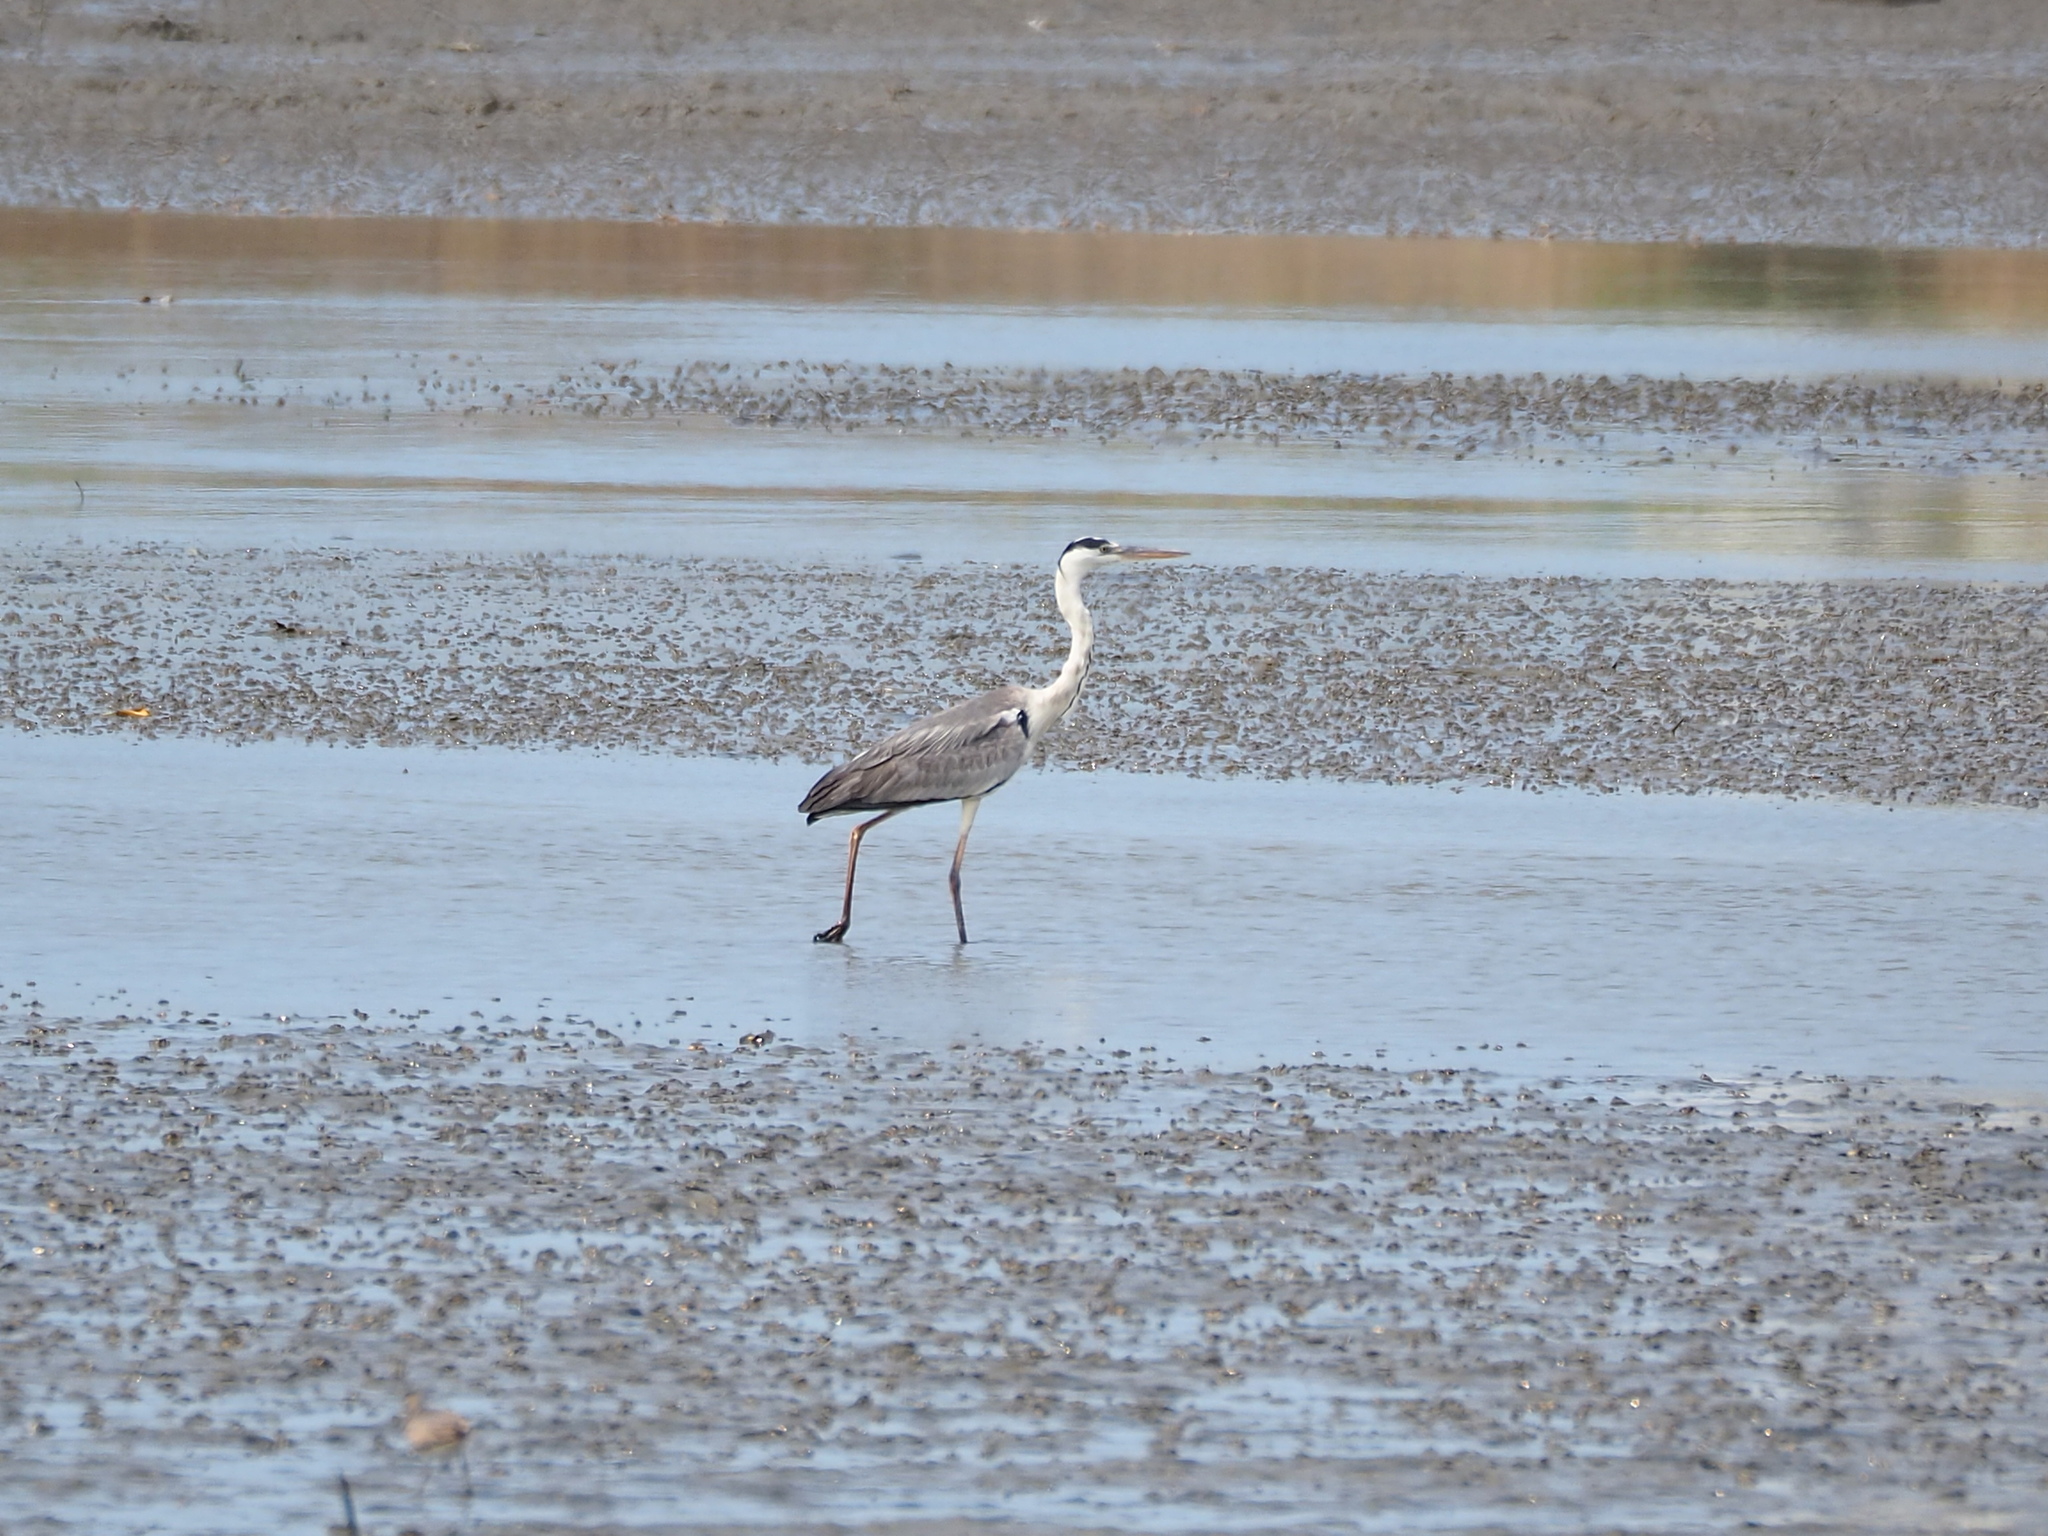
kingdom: Animalia
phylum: Chordata
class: Aves
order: Pelecaniformes
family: Ardeidae
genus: Ardea
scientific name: Ardea cinerea
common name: Grey heron
